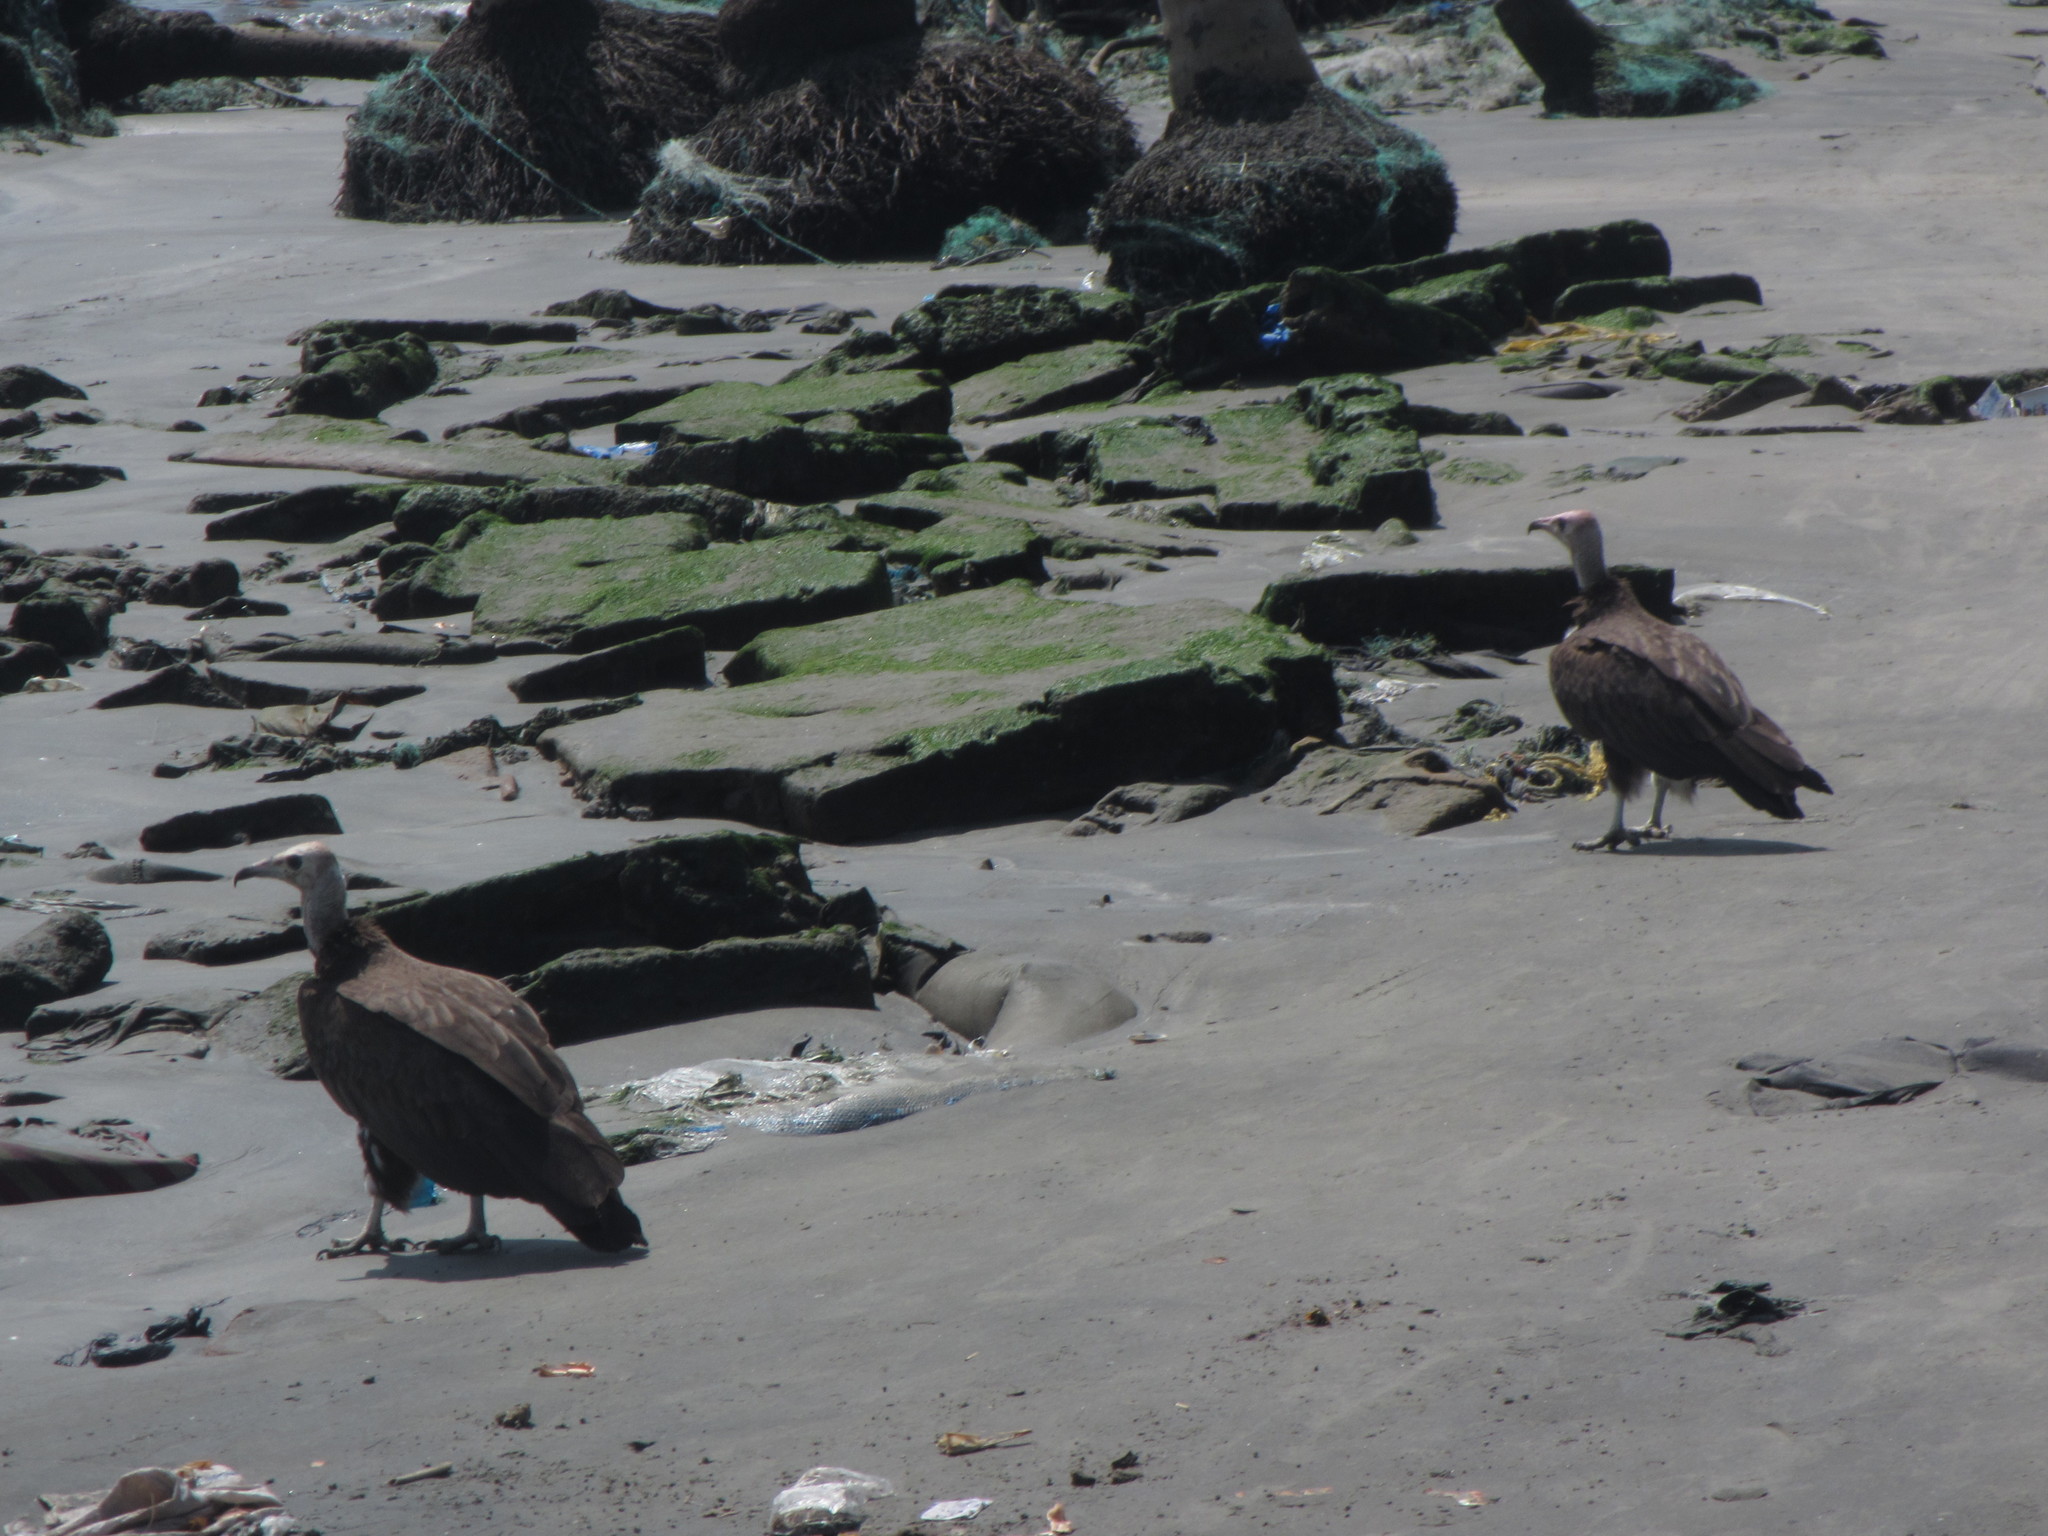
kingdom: Animalia
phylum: Chordata
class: Aves
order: Accipitriformes
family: Accipitridae
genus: Necrosyrtes
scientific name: Necrosyrtes monachus
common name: Hooded vulture
